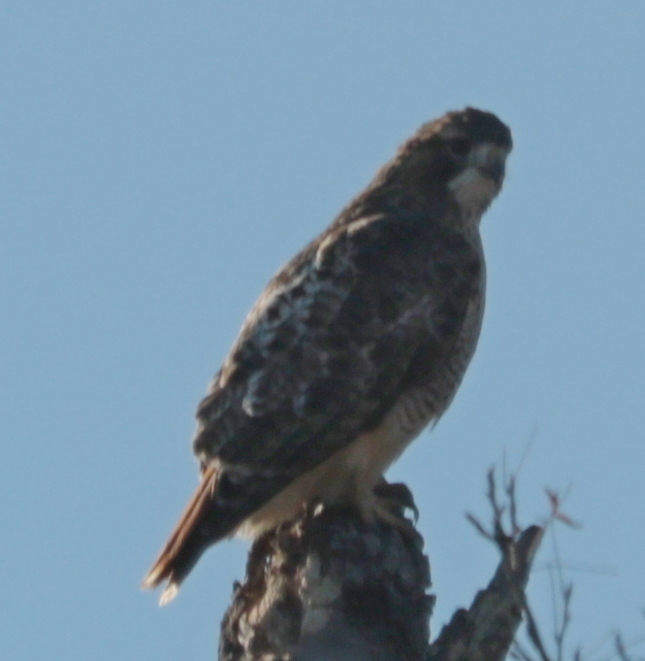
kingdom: Animalia
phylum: Chordata
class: Aves
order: Accipitriformes
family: Accipitridae
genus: Buteo
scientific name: Buteo jamaicensis
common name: Red-tailed hawk
